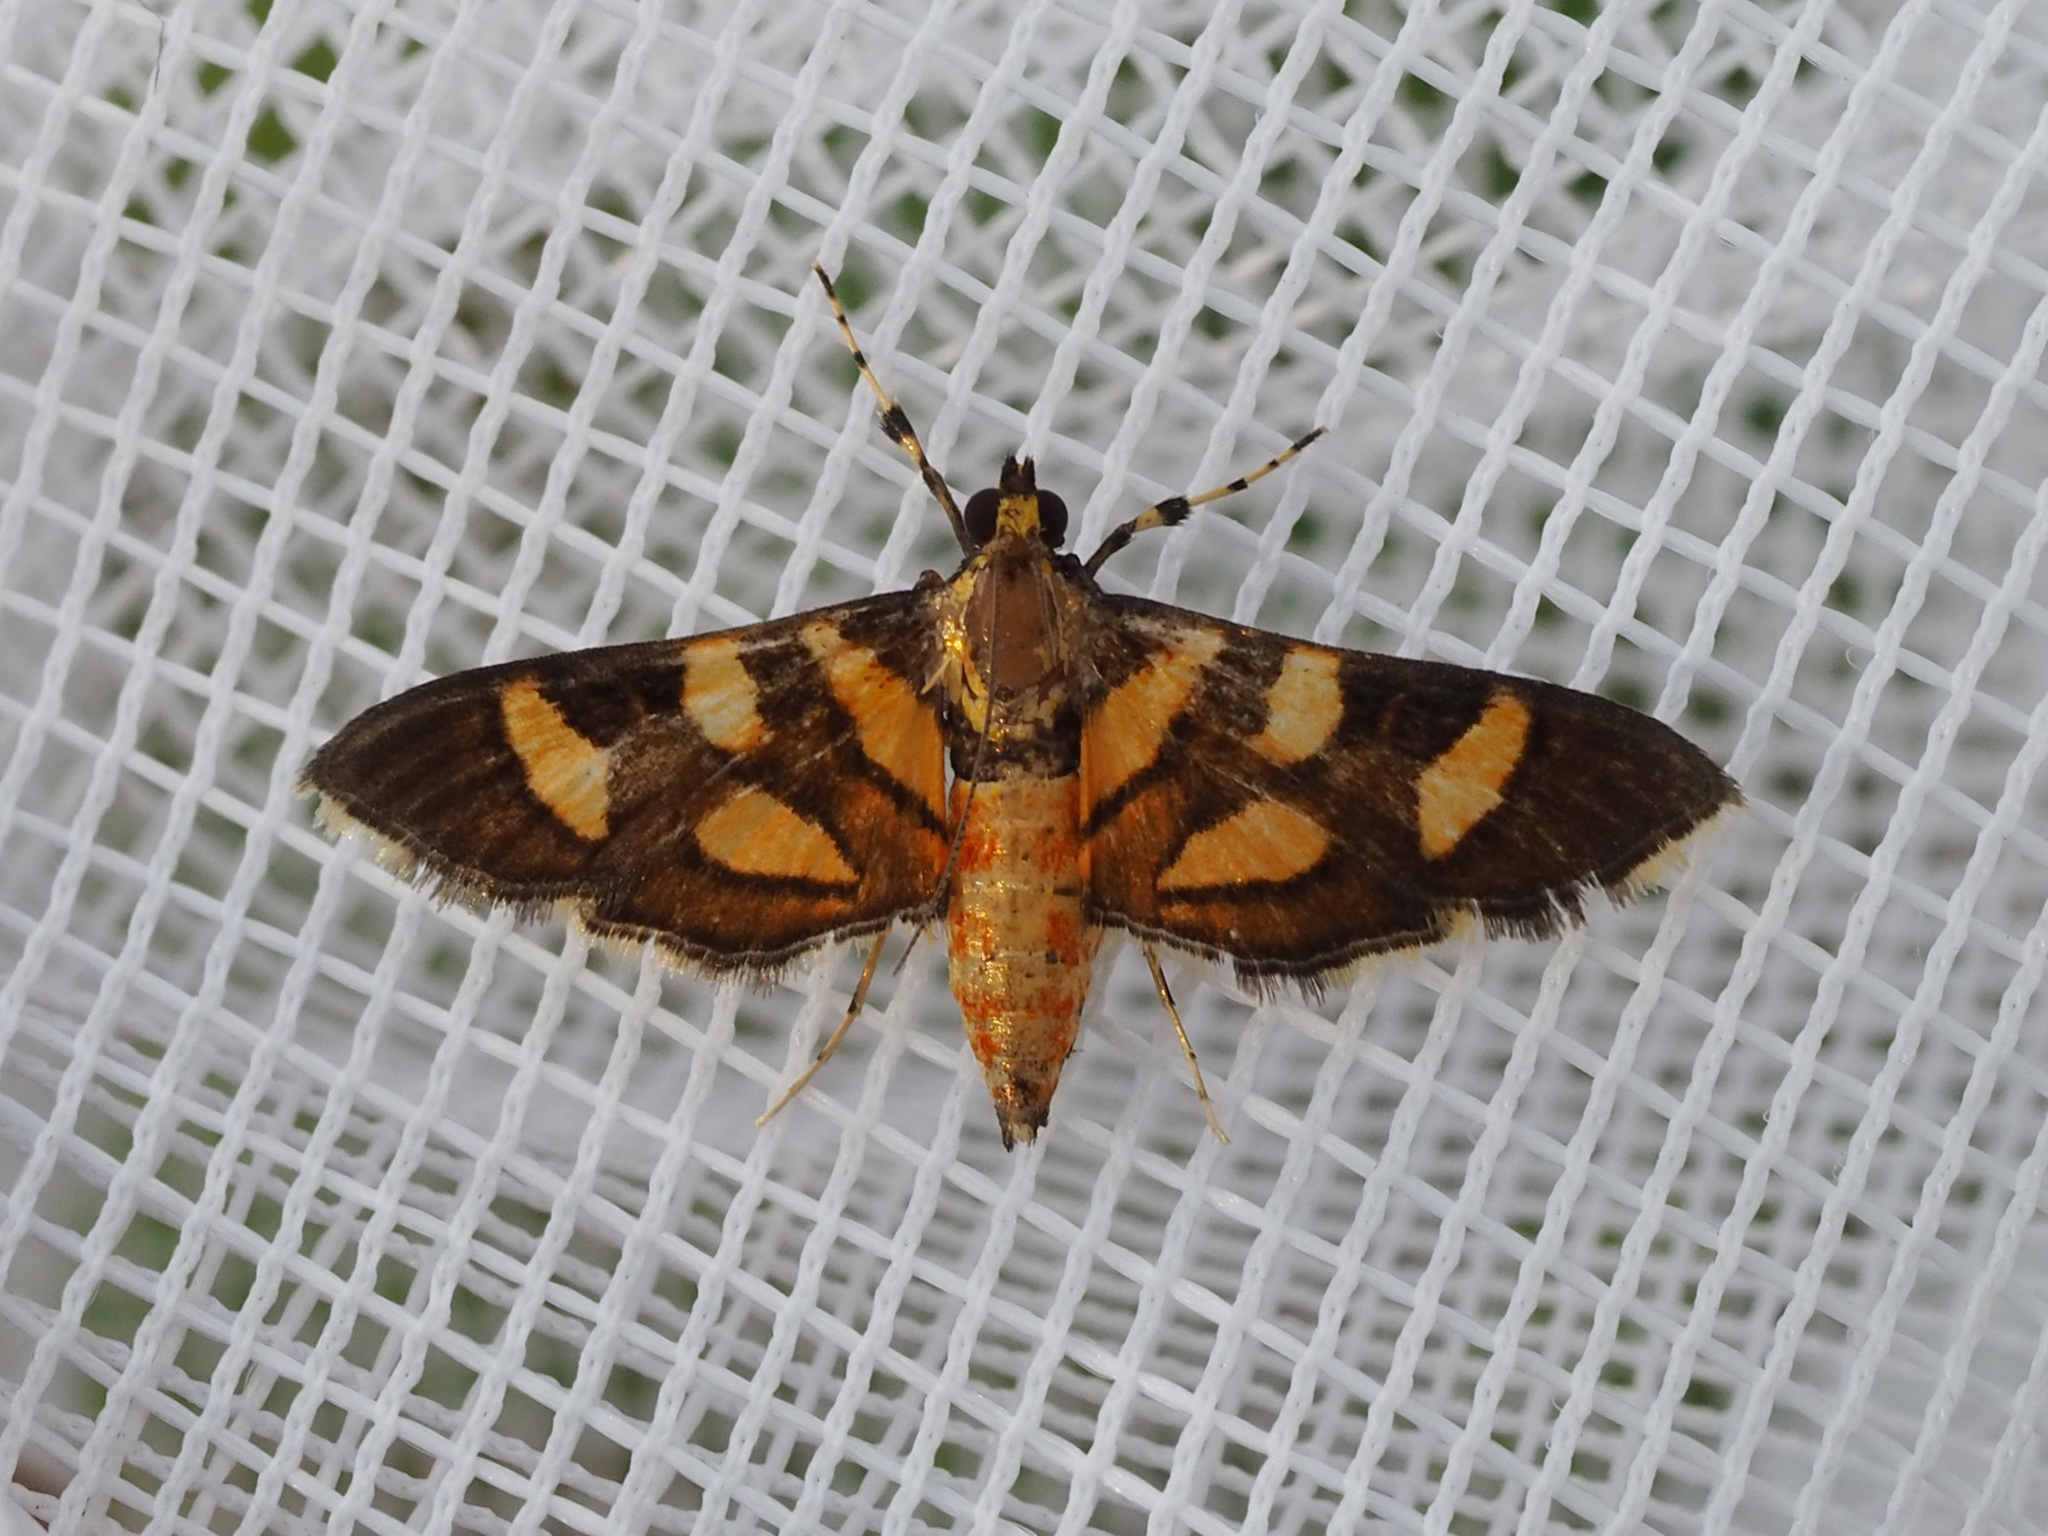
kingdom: Animalia
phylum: Arthropoda
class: Insecta
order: Lepidoptera
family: Crambidae
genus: Syngamia
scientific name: Syngamia florella
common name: Orange-spotted flower moth
